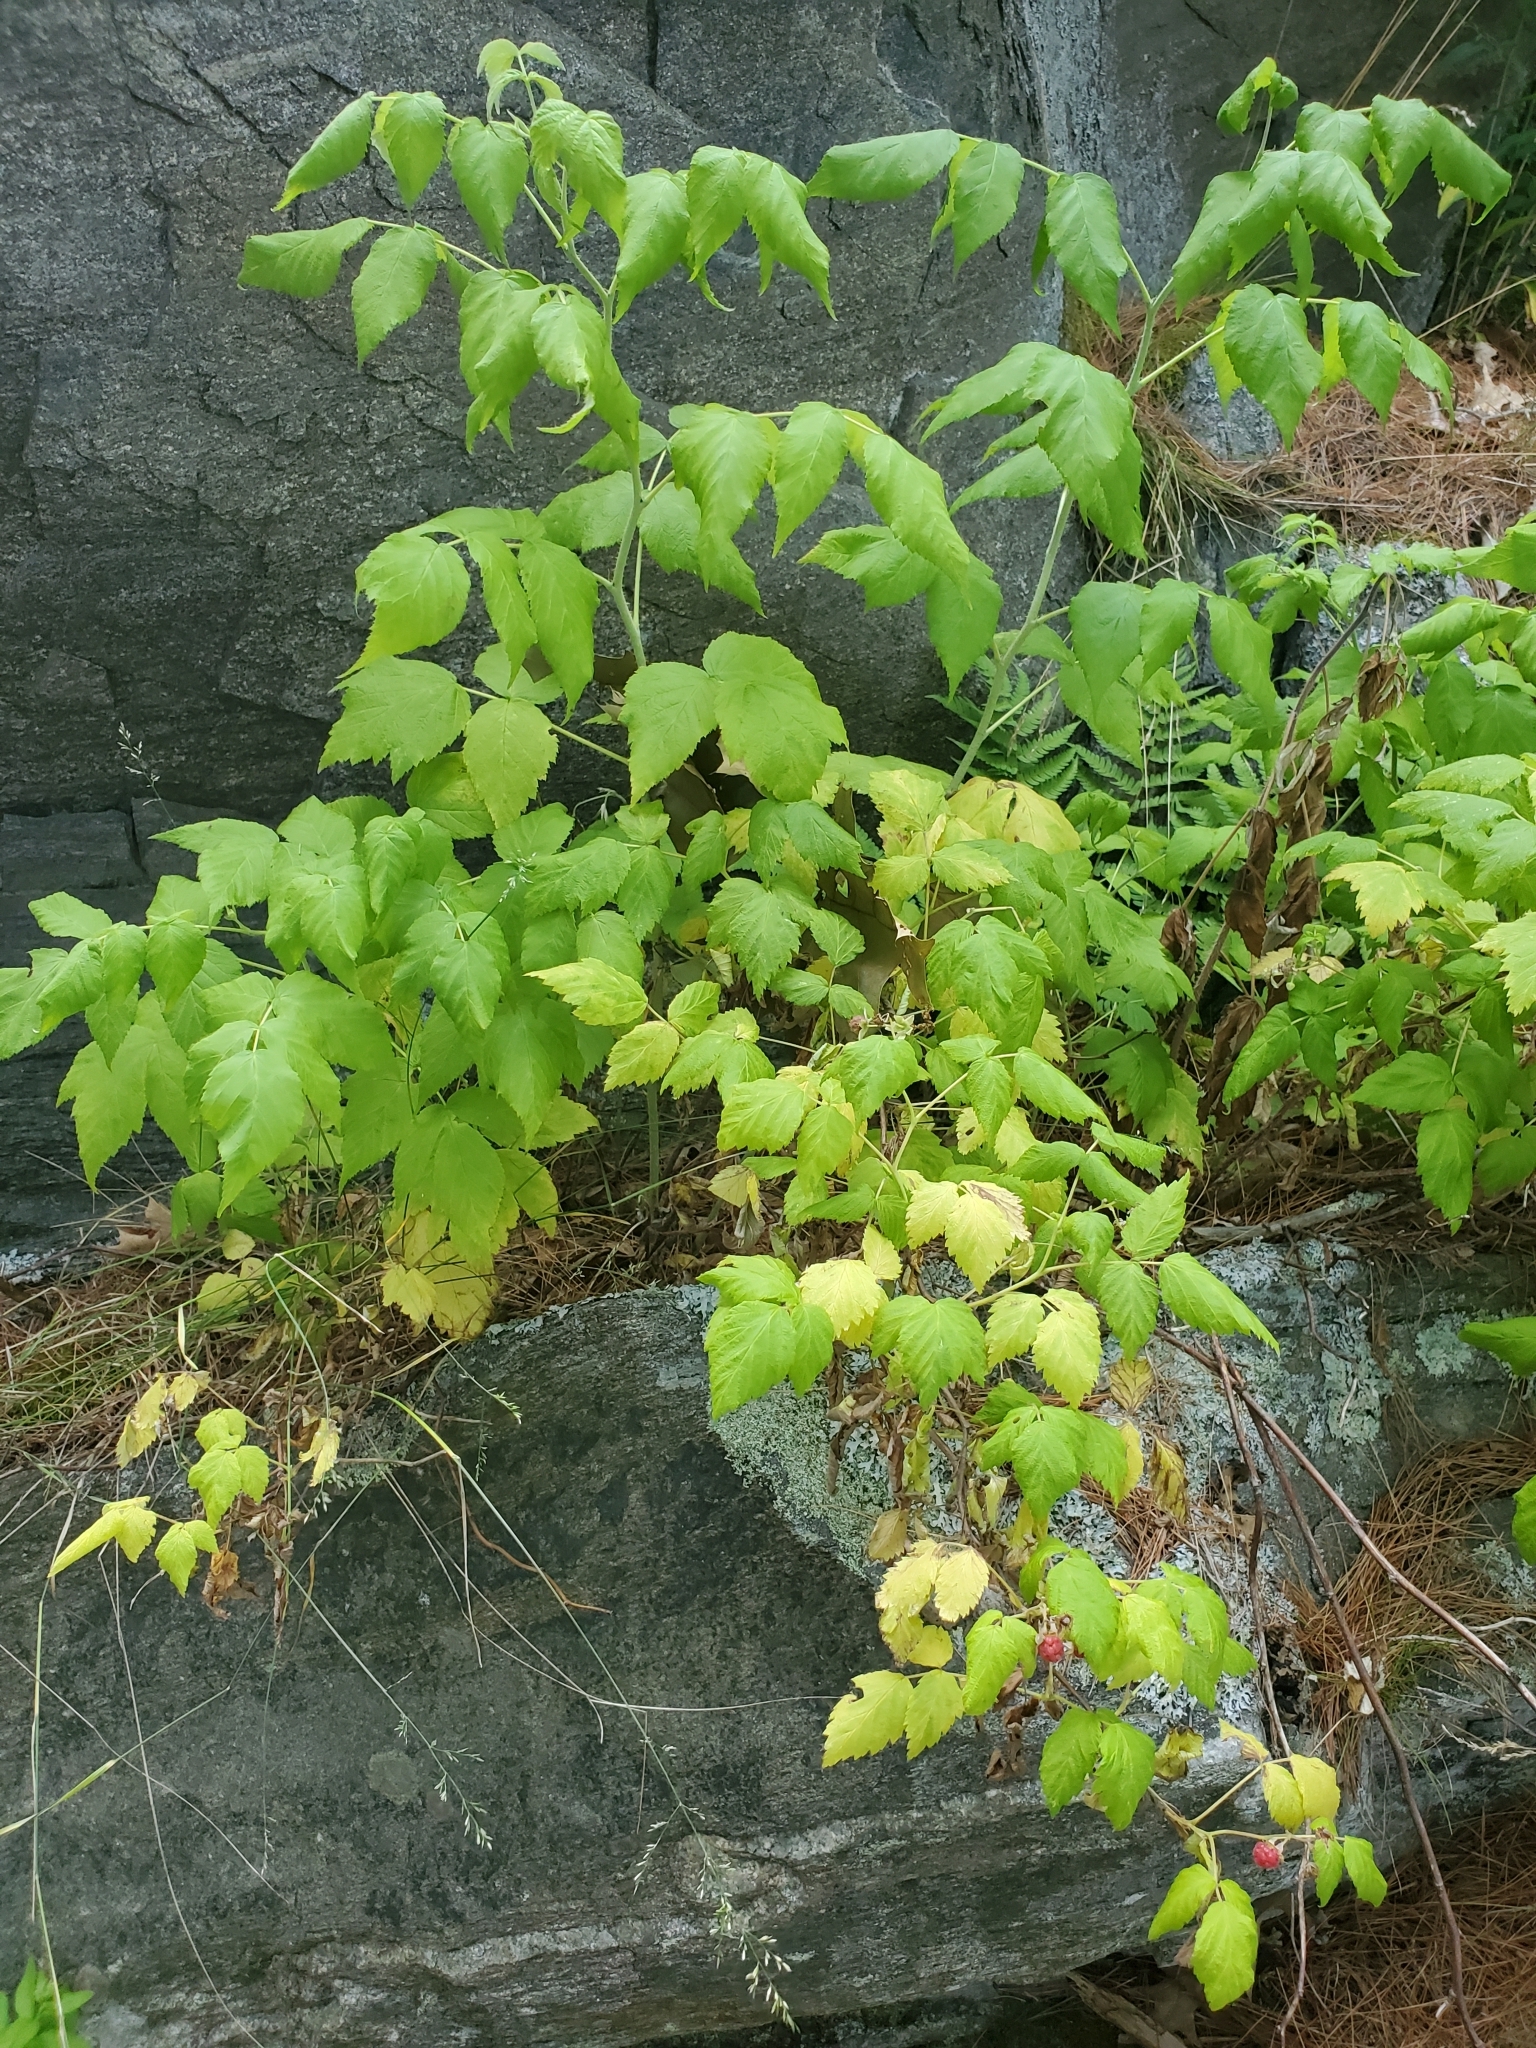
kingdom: Plantae
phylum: Tracheophyta
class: Magnoliopsida
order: Rosales
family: Rosaceae
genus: Rubus
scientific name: Rubus idaeus
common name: Raspberry
